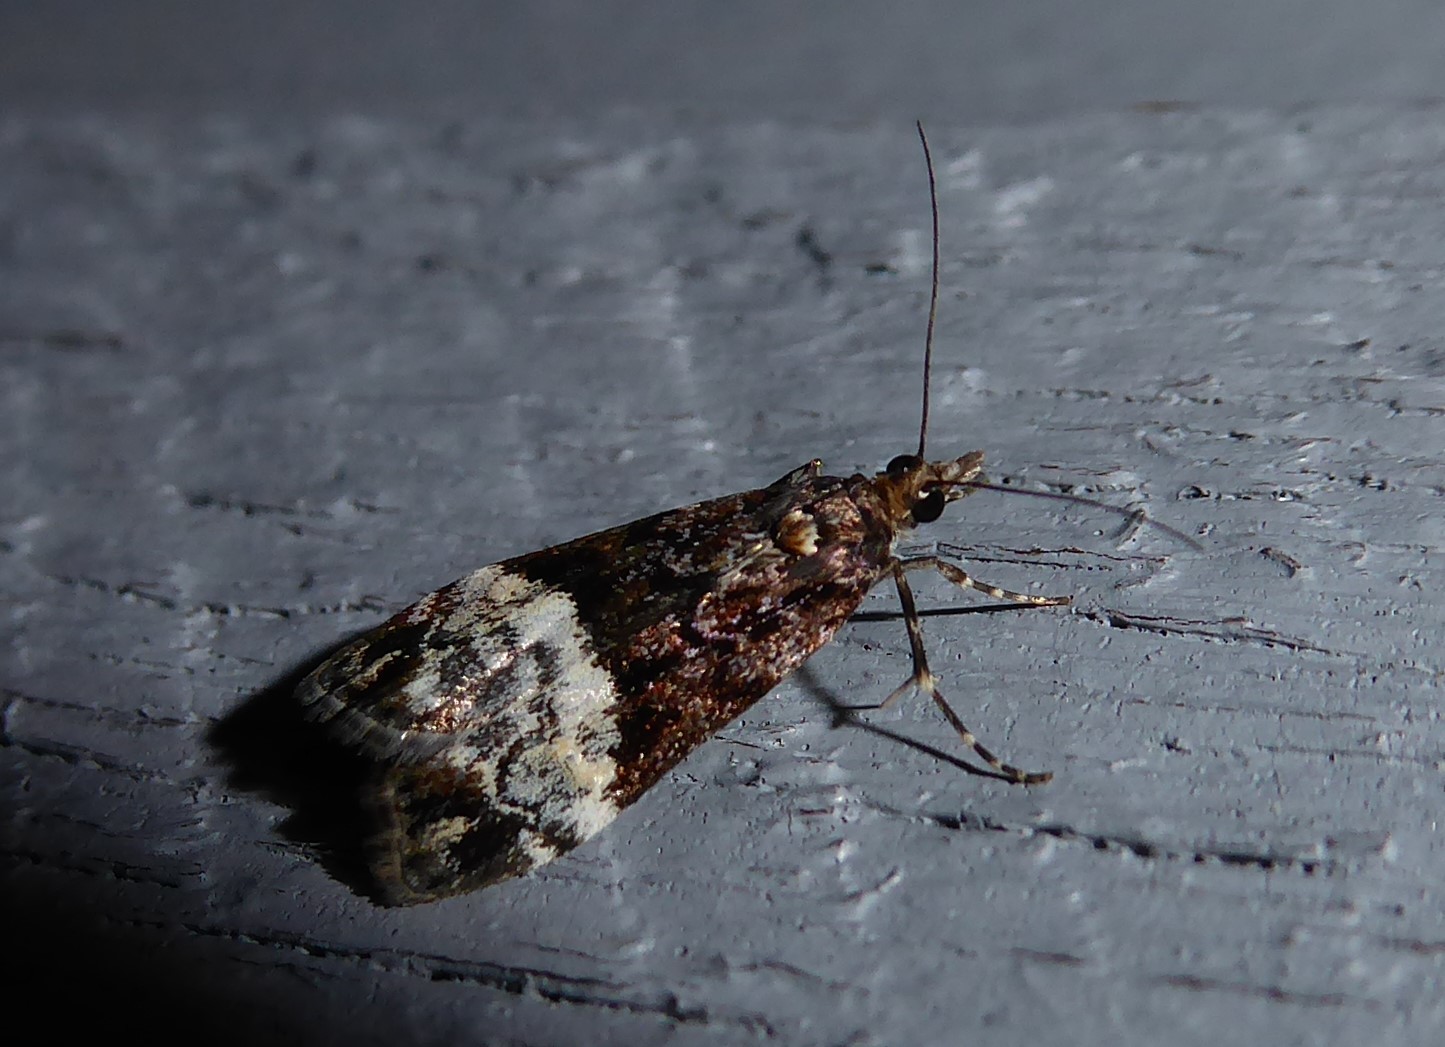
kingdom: Animalia
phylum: Arthropoda
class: Insecta
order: Lepidoptera
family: Crambidae
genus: Scoparia
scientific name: Scoparia minusculalis
